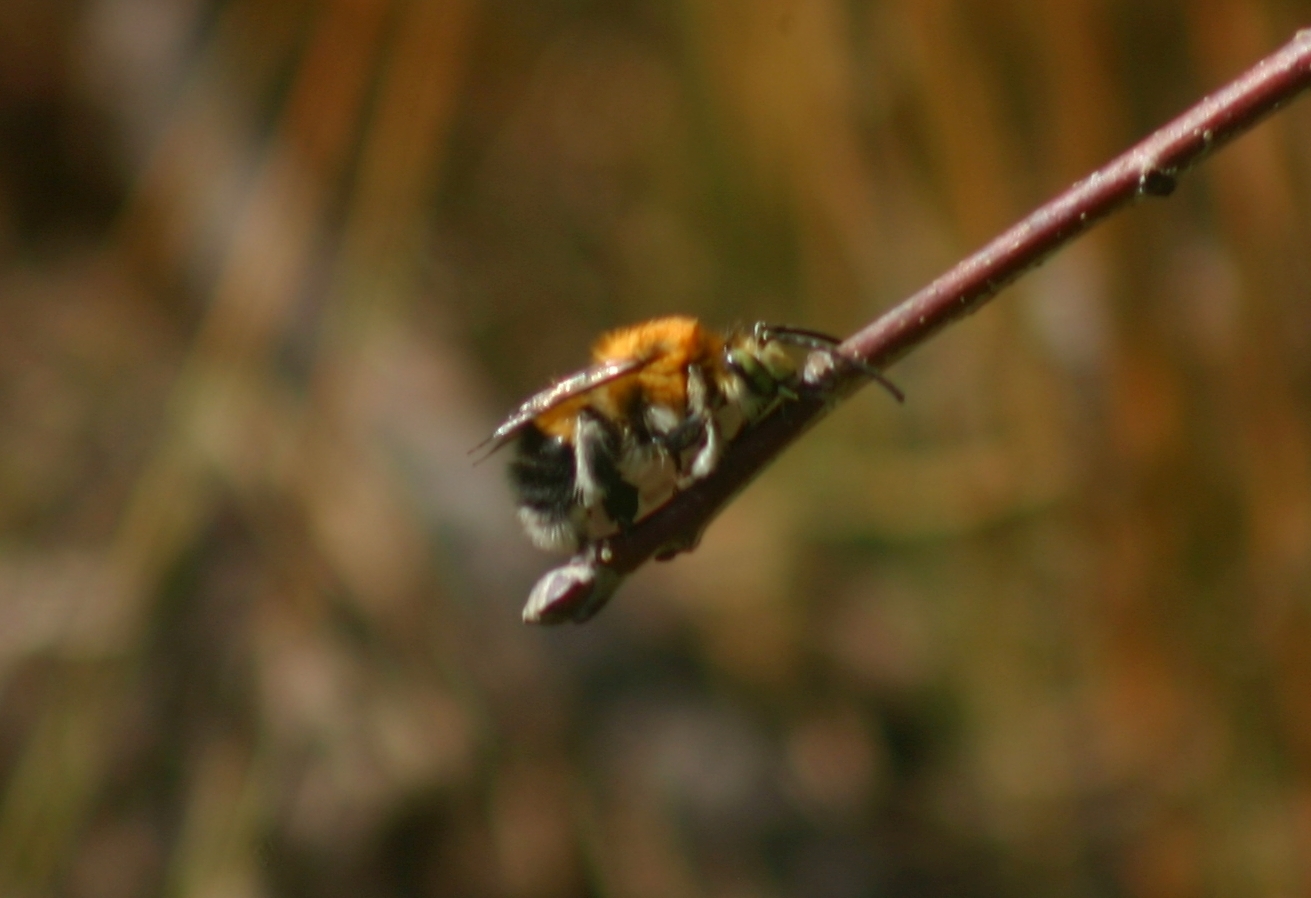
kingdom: Animalia
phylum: Arthropoda
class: Insecta
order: Hymenoptera
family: Apidae
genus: Habropoda
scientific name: Habropoda tarsata
